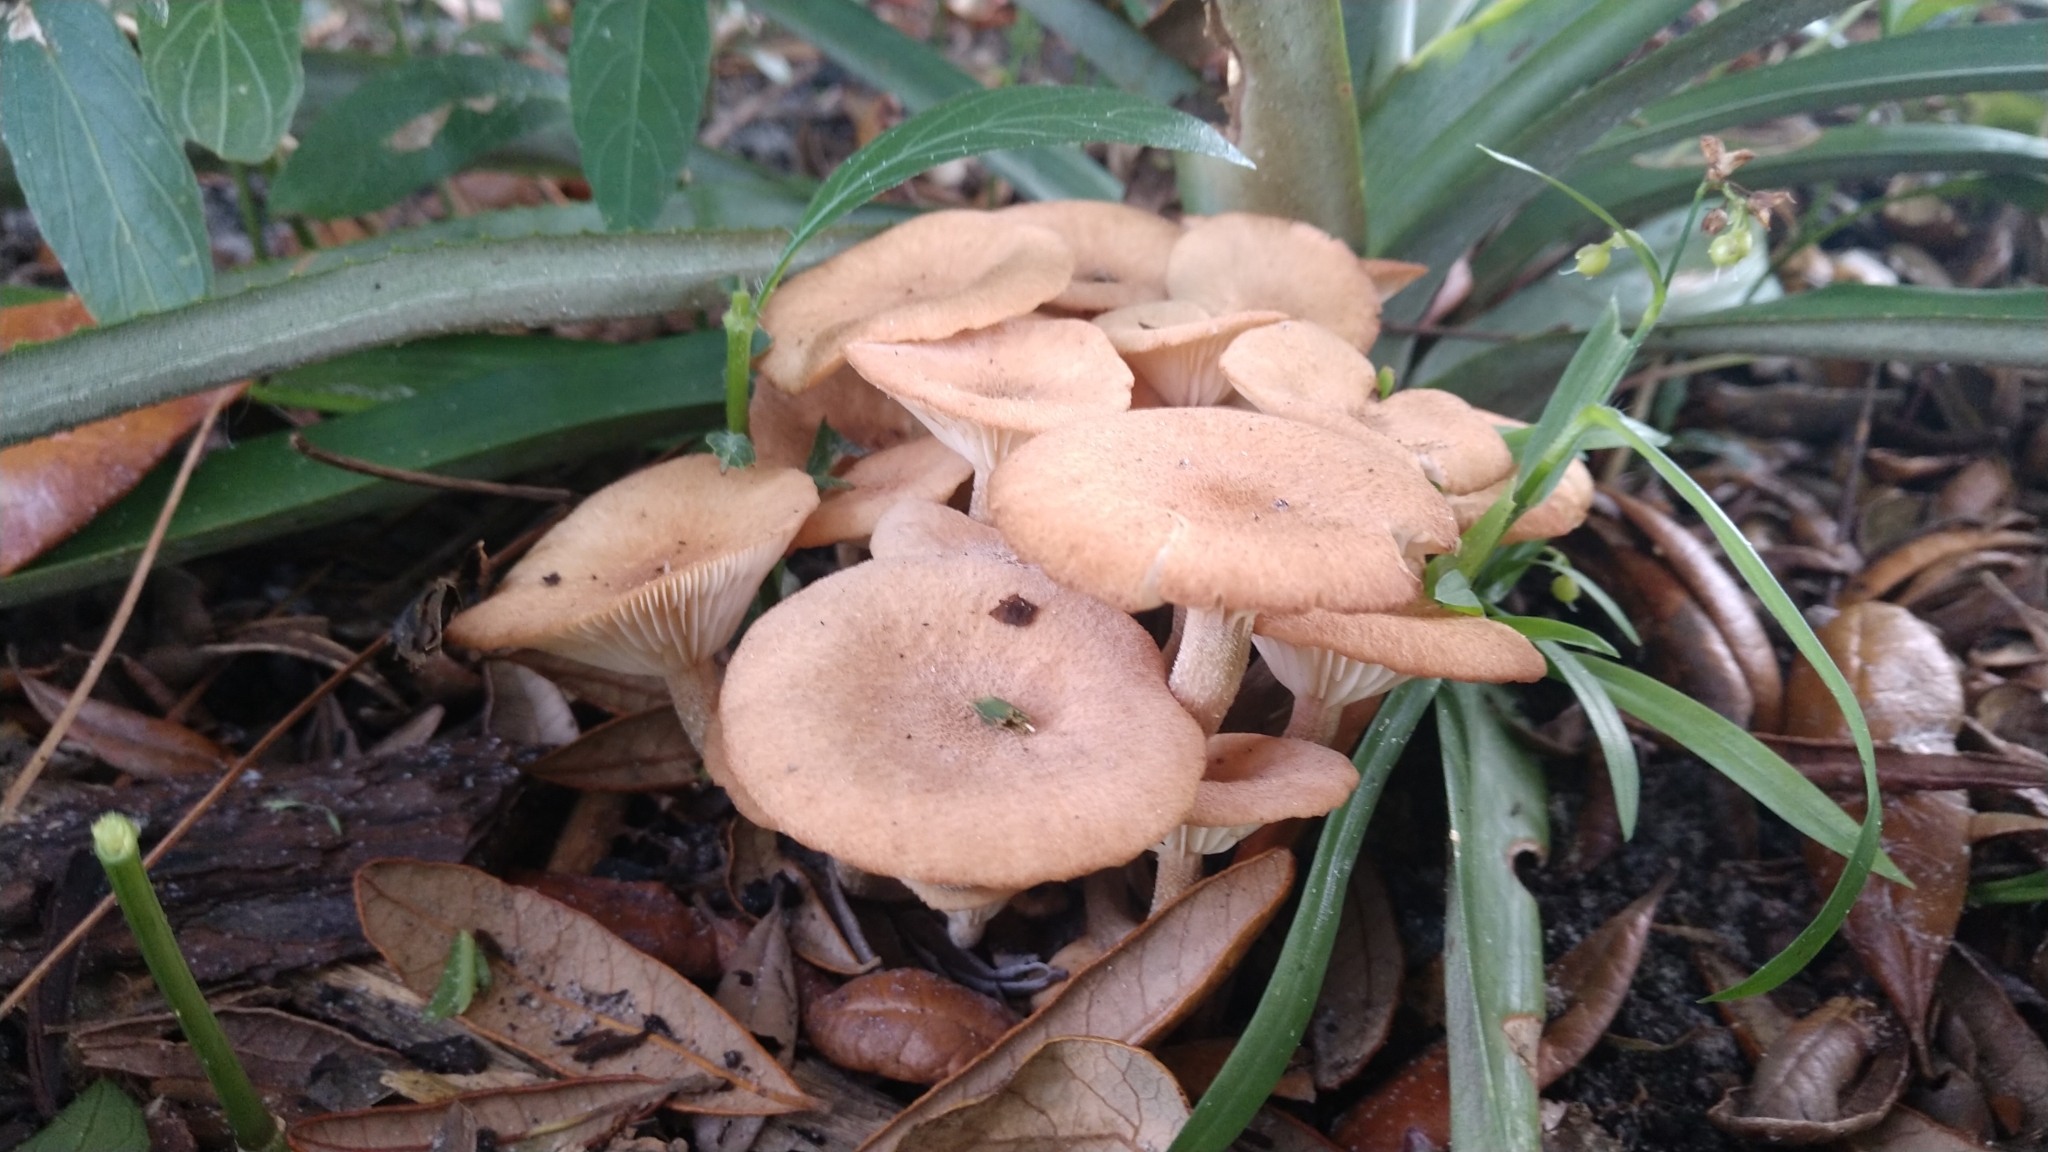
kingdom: Fungi
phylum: Basidiomycota
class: Agaricomycetes
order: Agaricales
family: Physalacriaceae
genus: Desarmillaria
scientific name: Desarmillaria caespitosa
